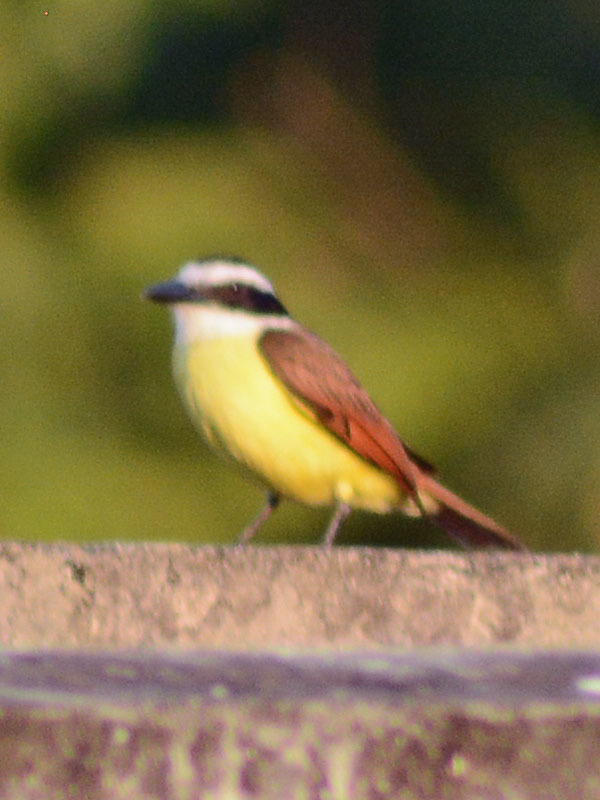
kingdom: Animalia
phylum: Chordata
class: Aves
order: Passeriformes
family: Tyrannidae
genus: Pitangus
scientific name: Pitangus sulphuratus
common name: Great kiskadee
